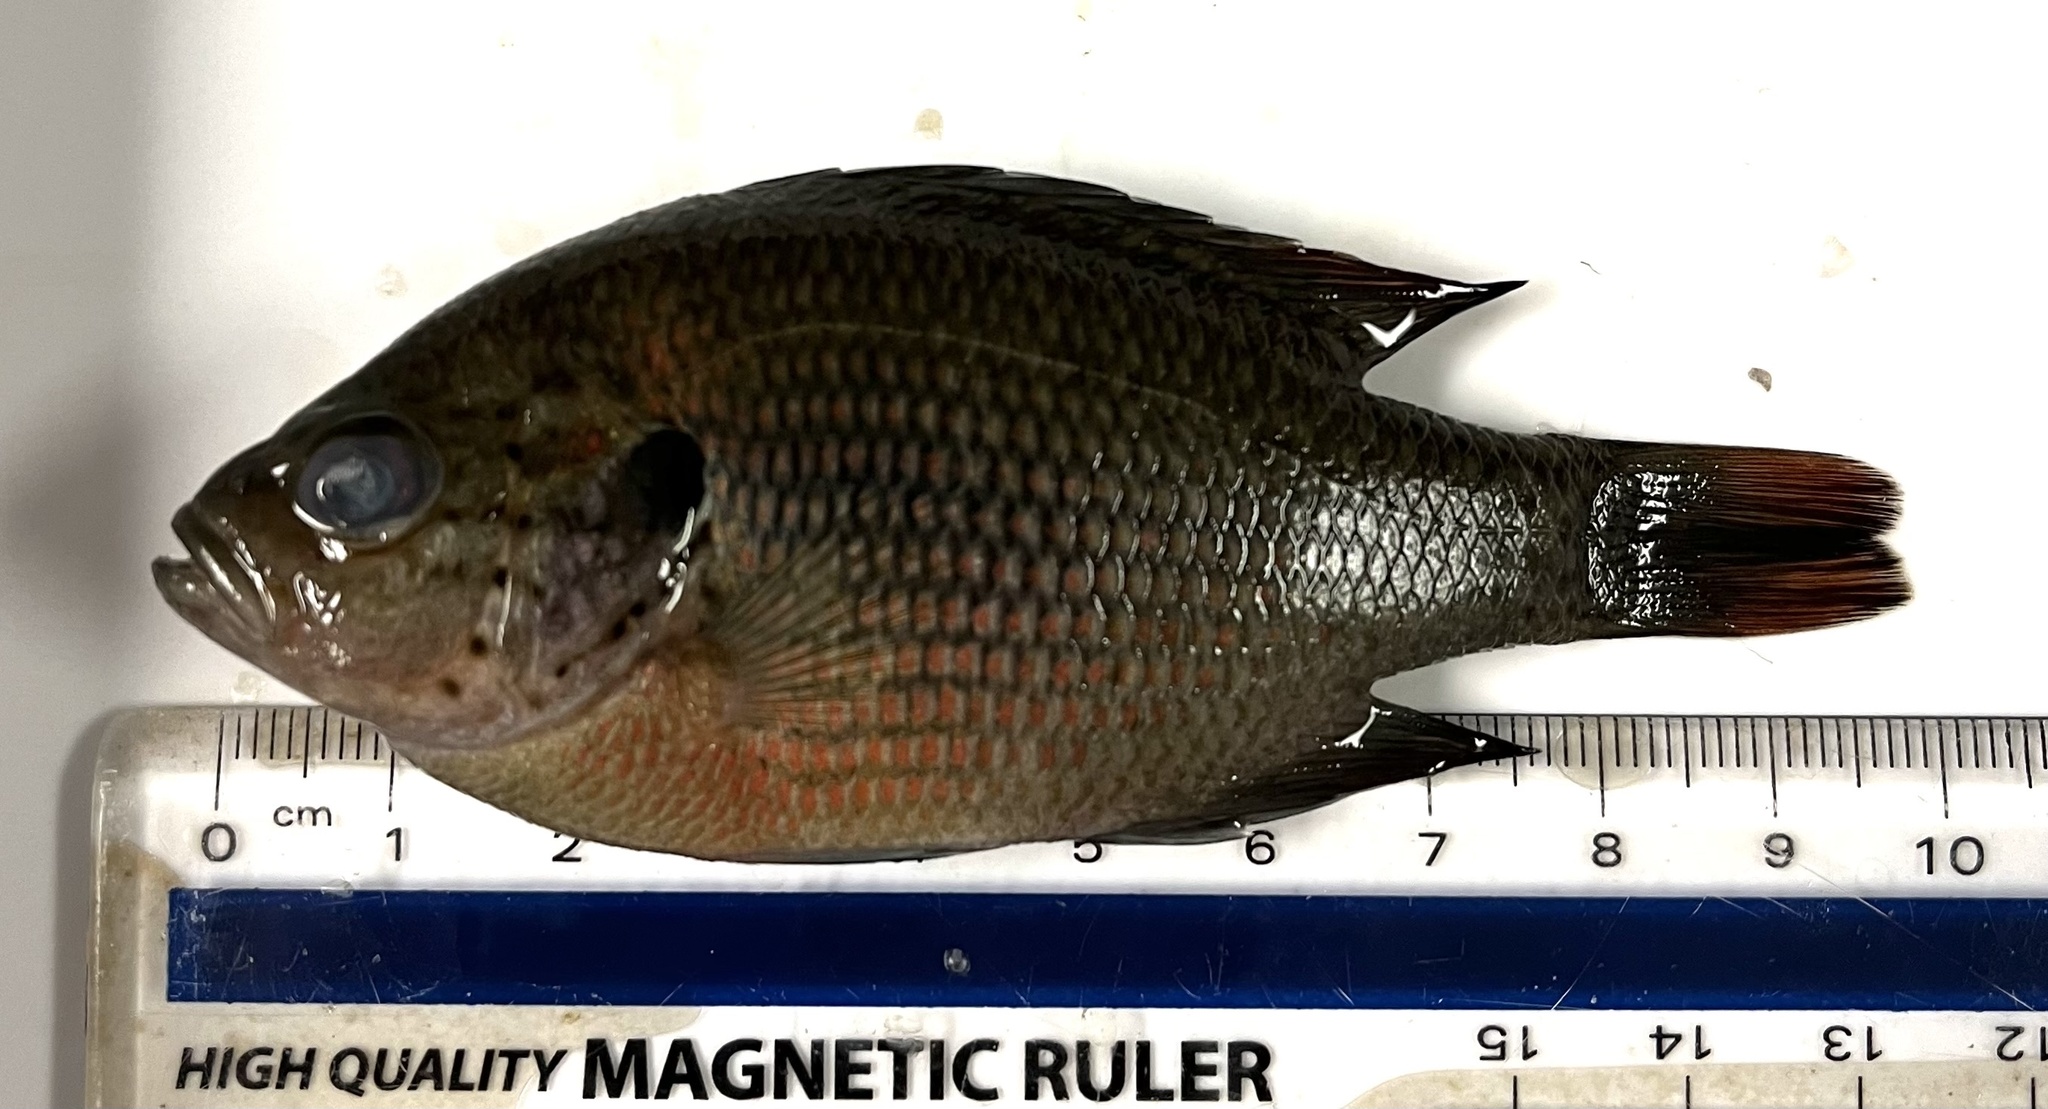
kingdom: Animalia
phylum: Chordata
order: Perciformes
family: Centrarchidae
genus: Lepomis
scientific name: Lepomis miniatus
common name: Redspotted sunfish
